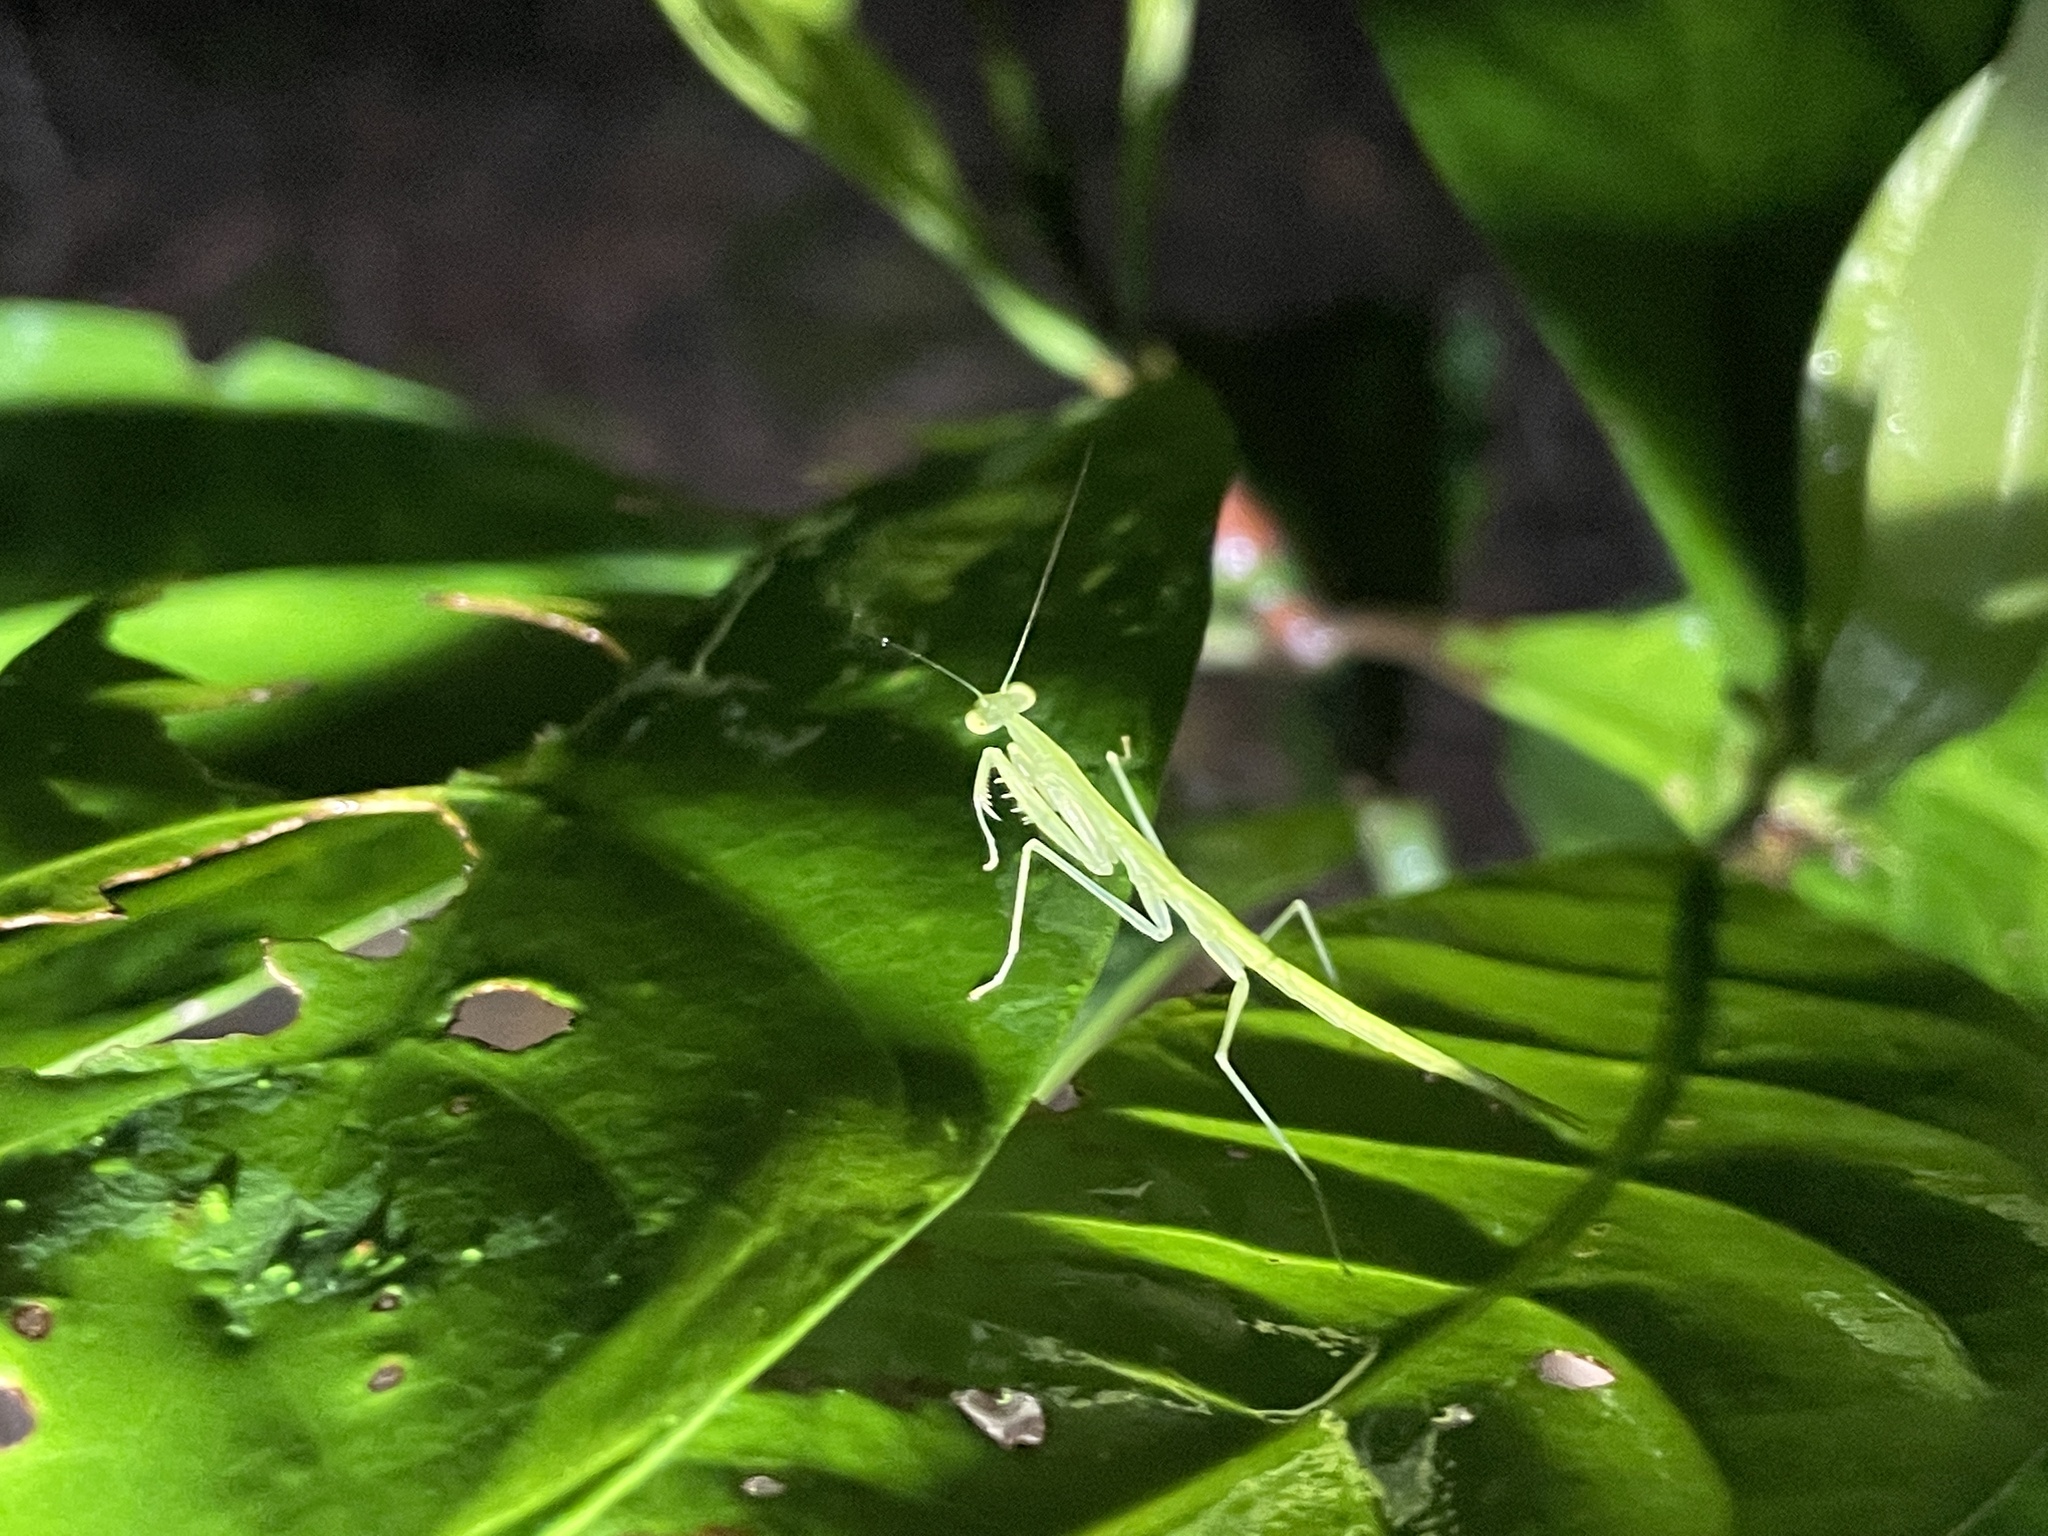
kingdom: Animalia
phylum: Arthropoda
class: Insecta
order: Mantodea
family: Nanomantidae
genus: Sinomantis
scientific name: Sinomantis denticulata
